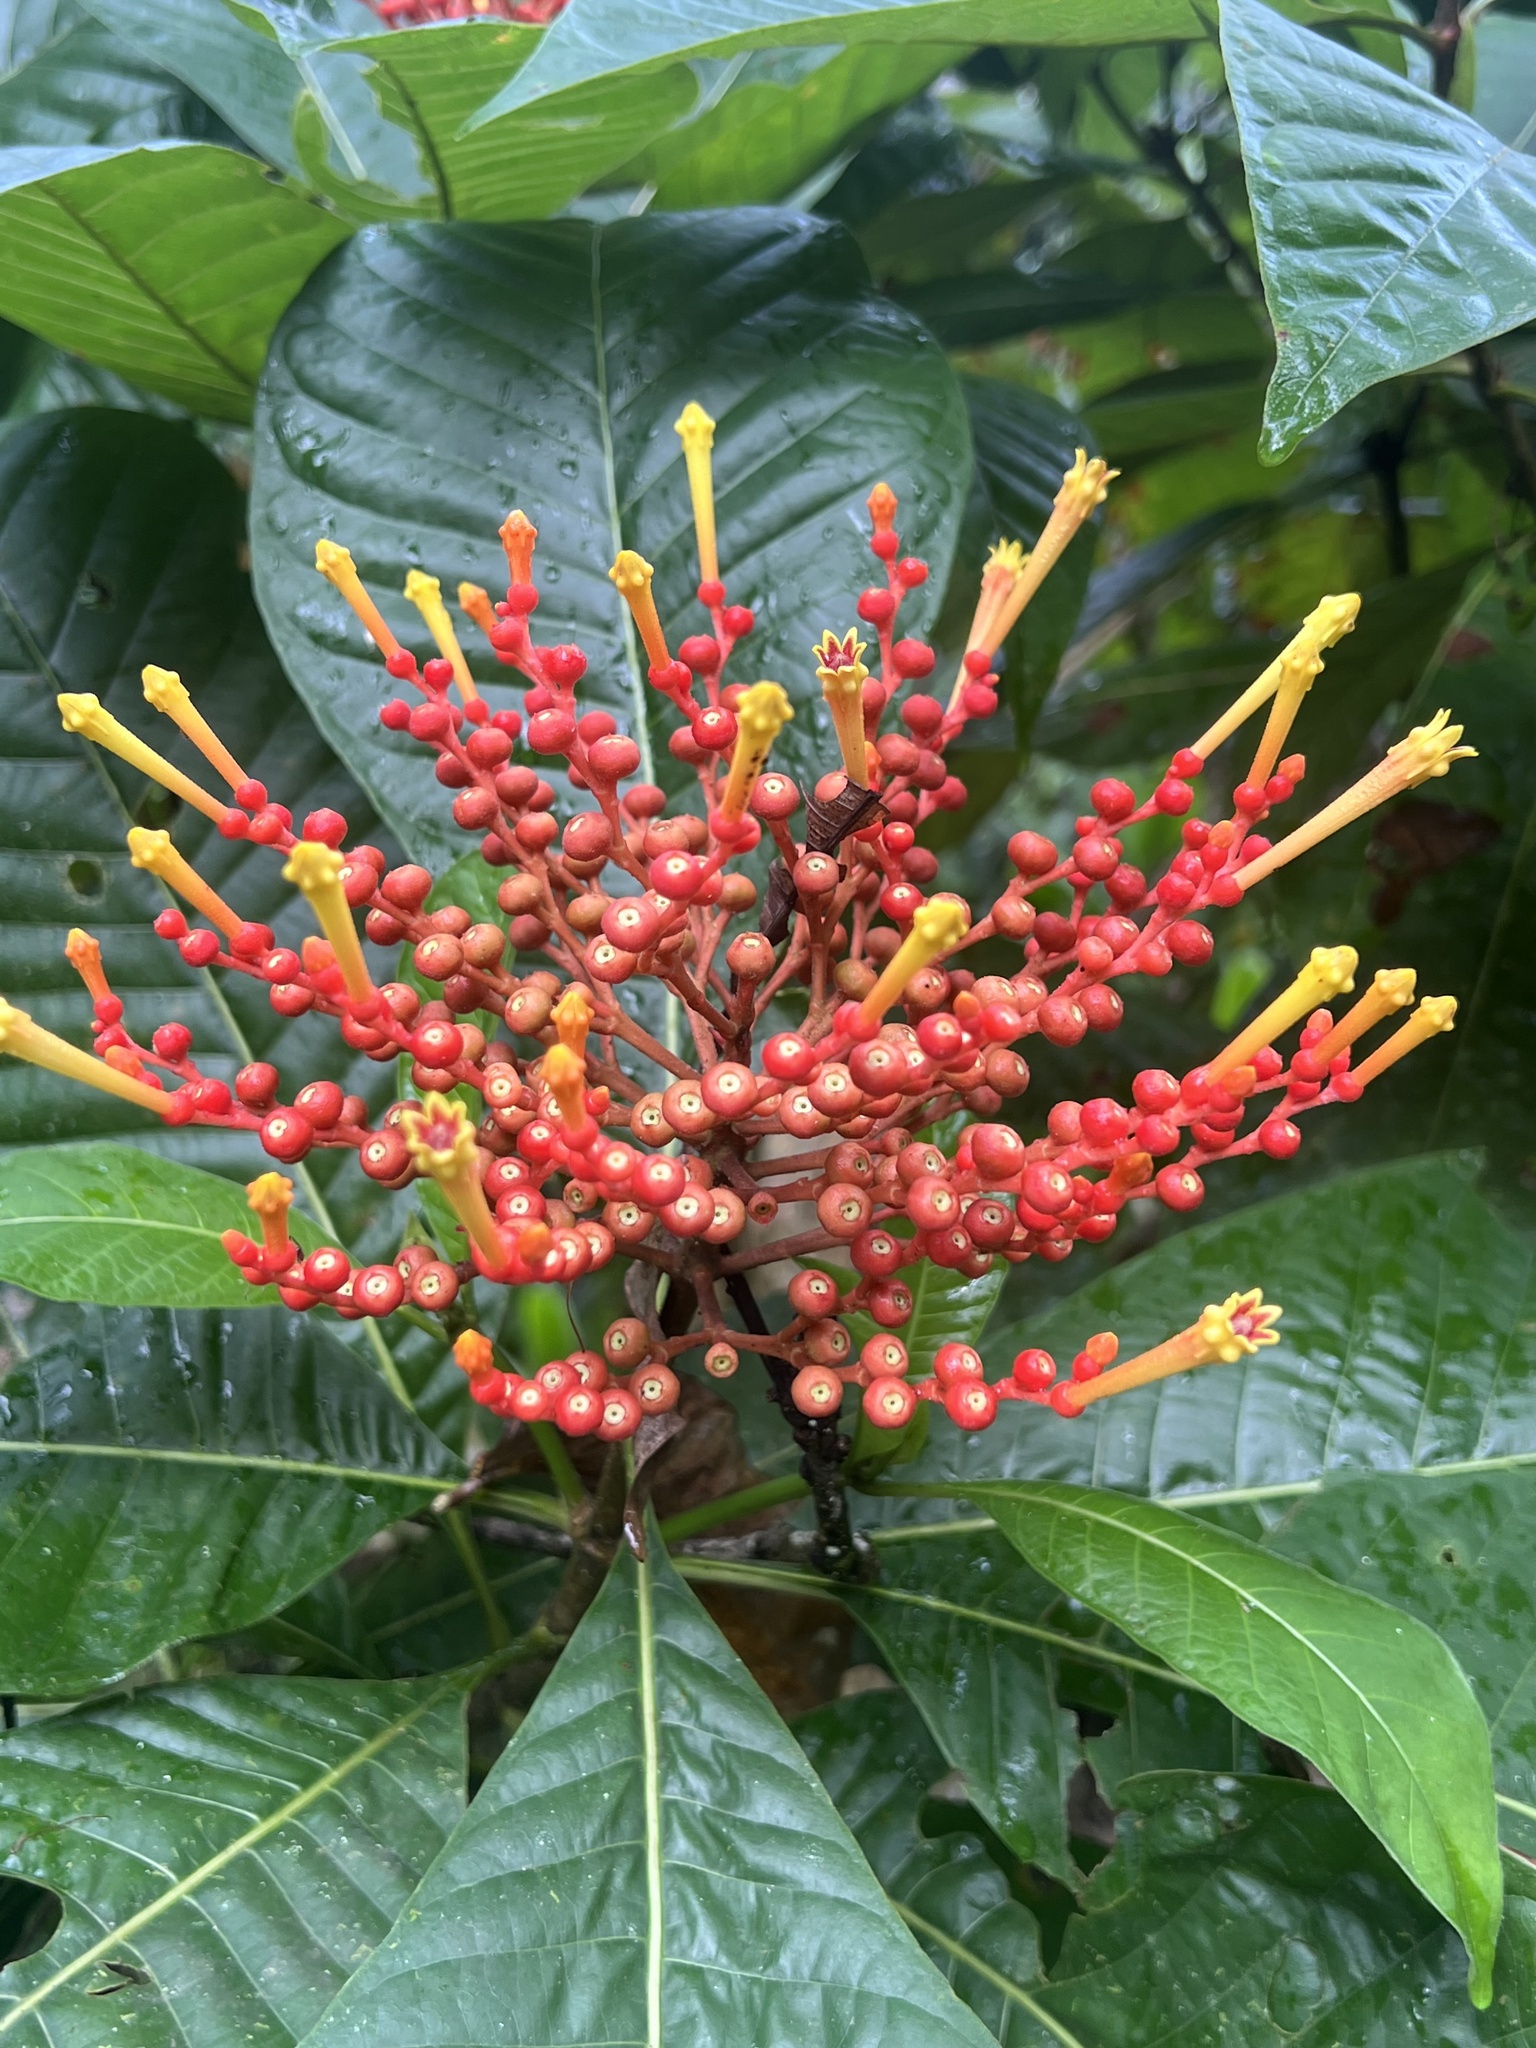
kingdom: Plantae
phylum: Tracheophyta
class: Magnoliopsida
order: Gentianales
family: Rubiaceae
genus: Isertia
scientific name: Isertia haenkeana
